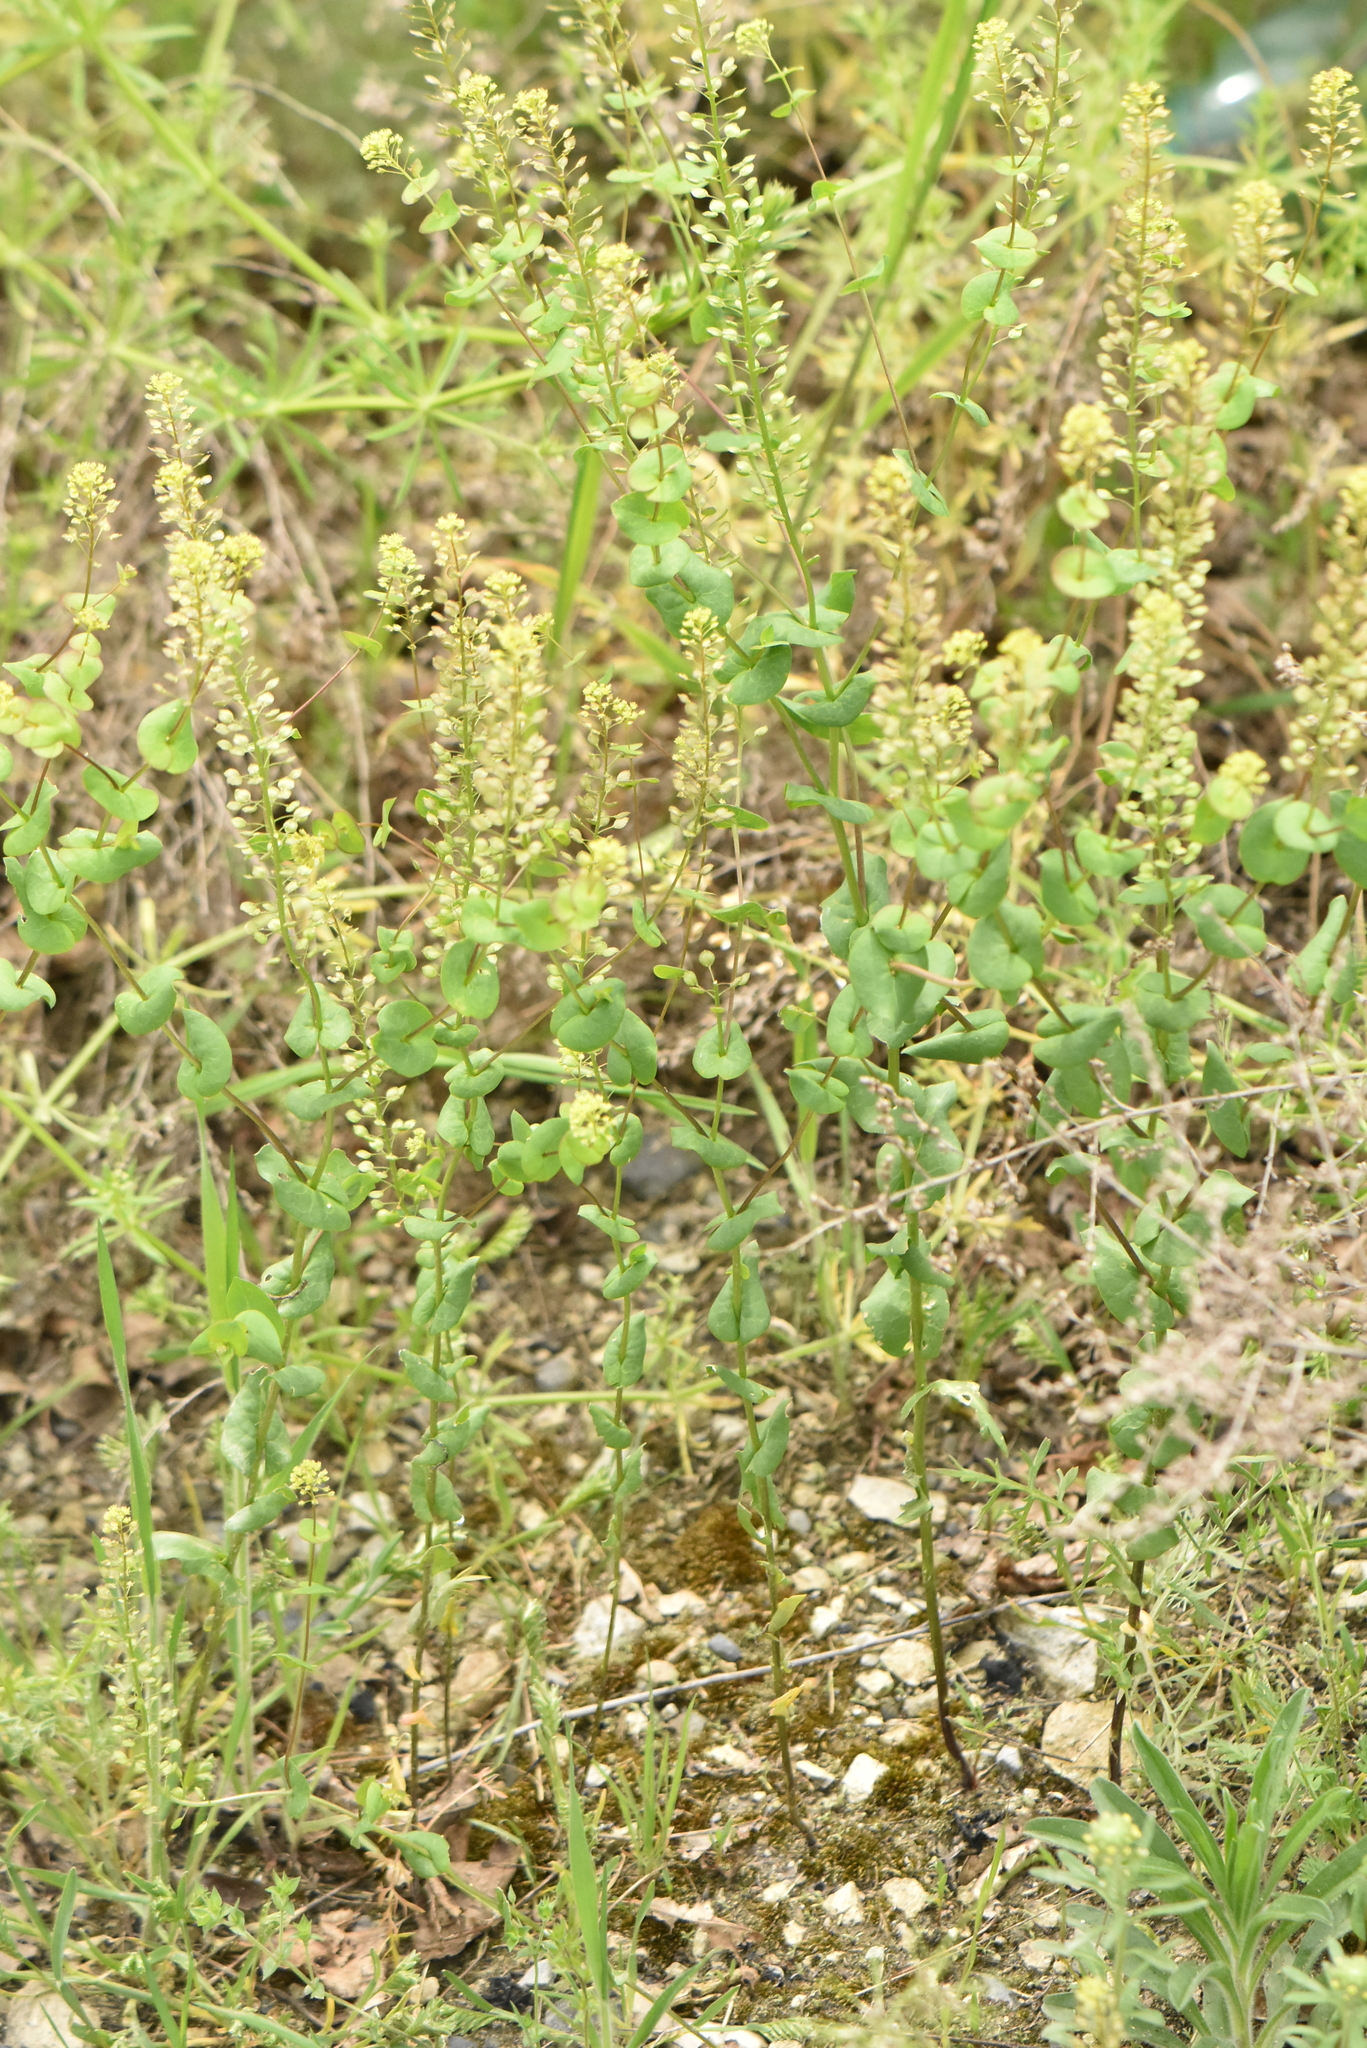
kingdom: Plantae
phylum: Tracheophyta
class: Magnoliopsida
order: Brassicales
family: Brassicaceae
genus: Lepidium
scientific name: Lepidium perfoliatum
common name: Perfoliate pepperwort
